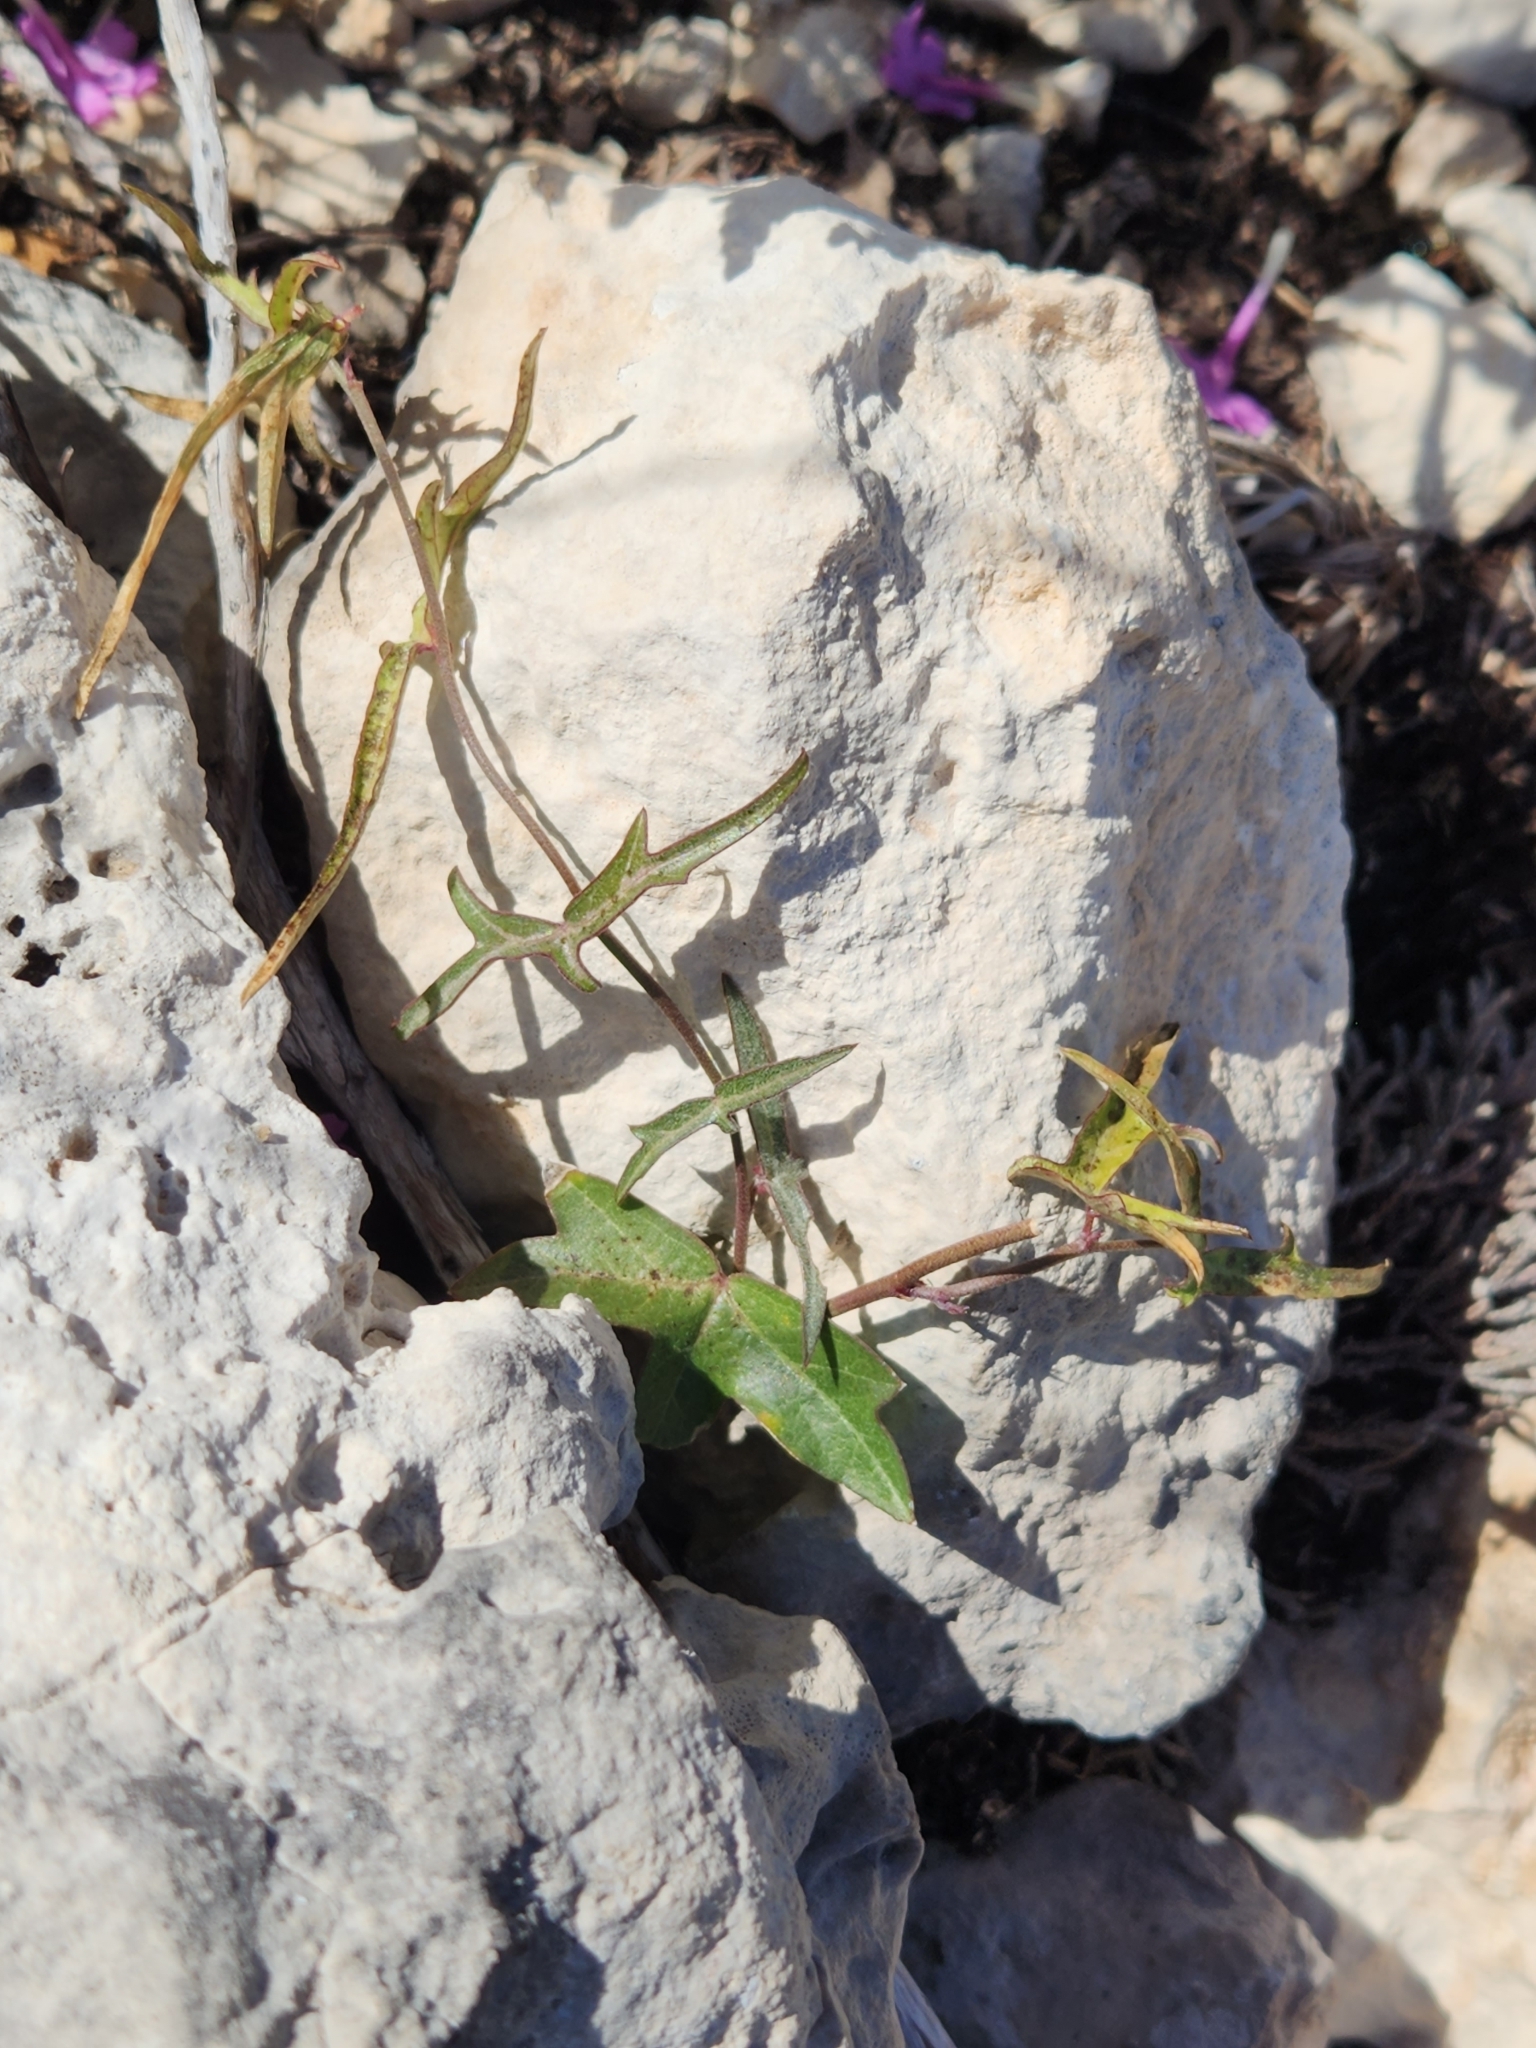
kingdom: Plantae
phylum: Tracheophyta
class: Magnoliopsida
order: Malpighiales
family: Passifloraceae
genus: Passiflora
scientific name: Passiflora tenuiloba
